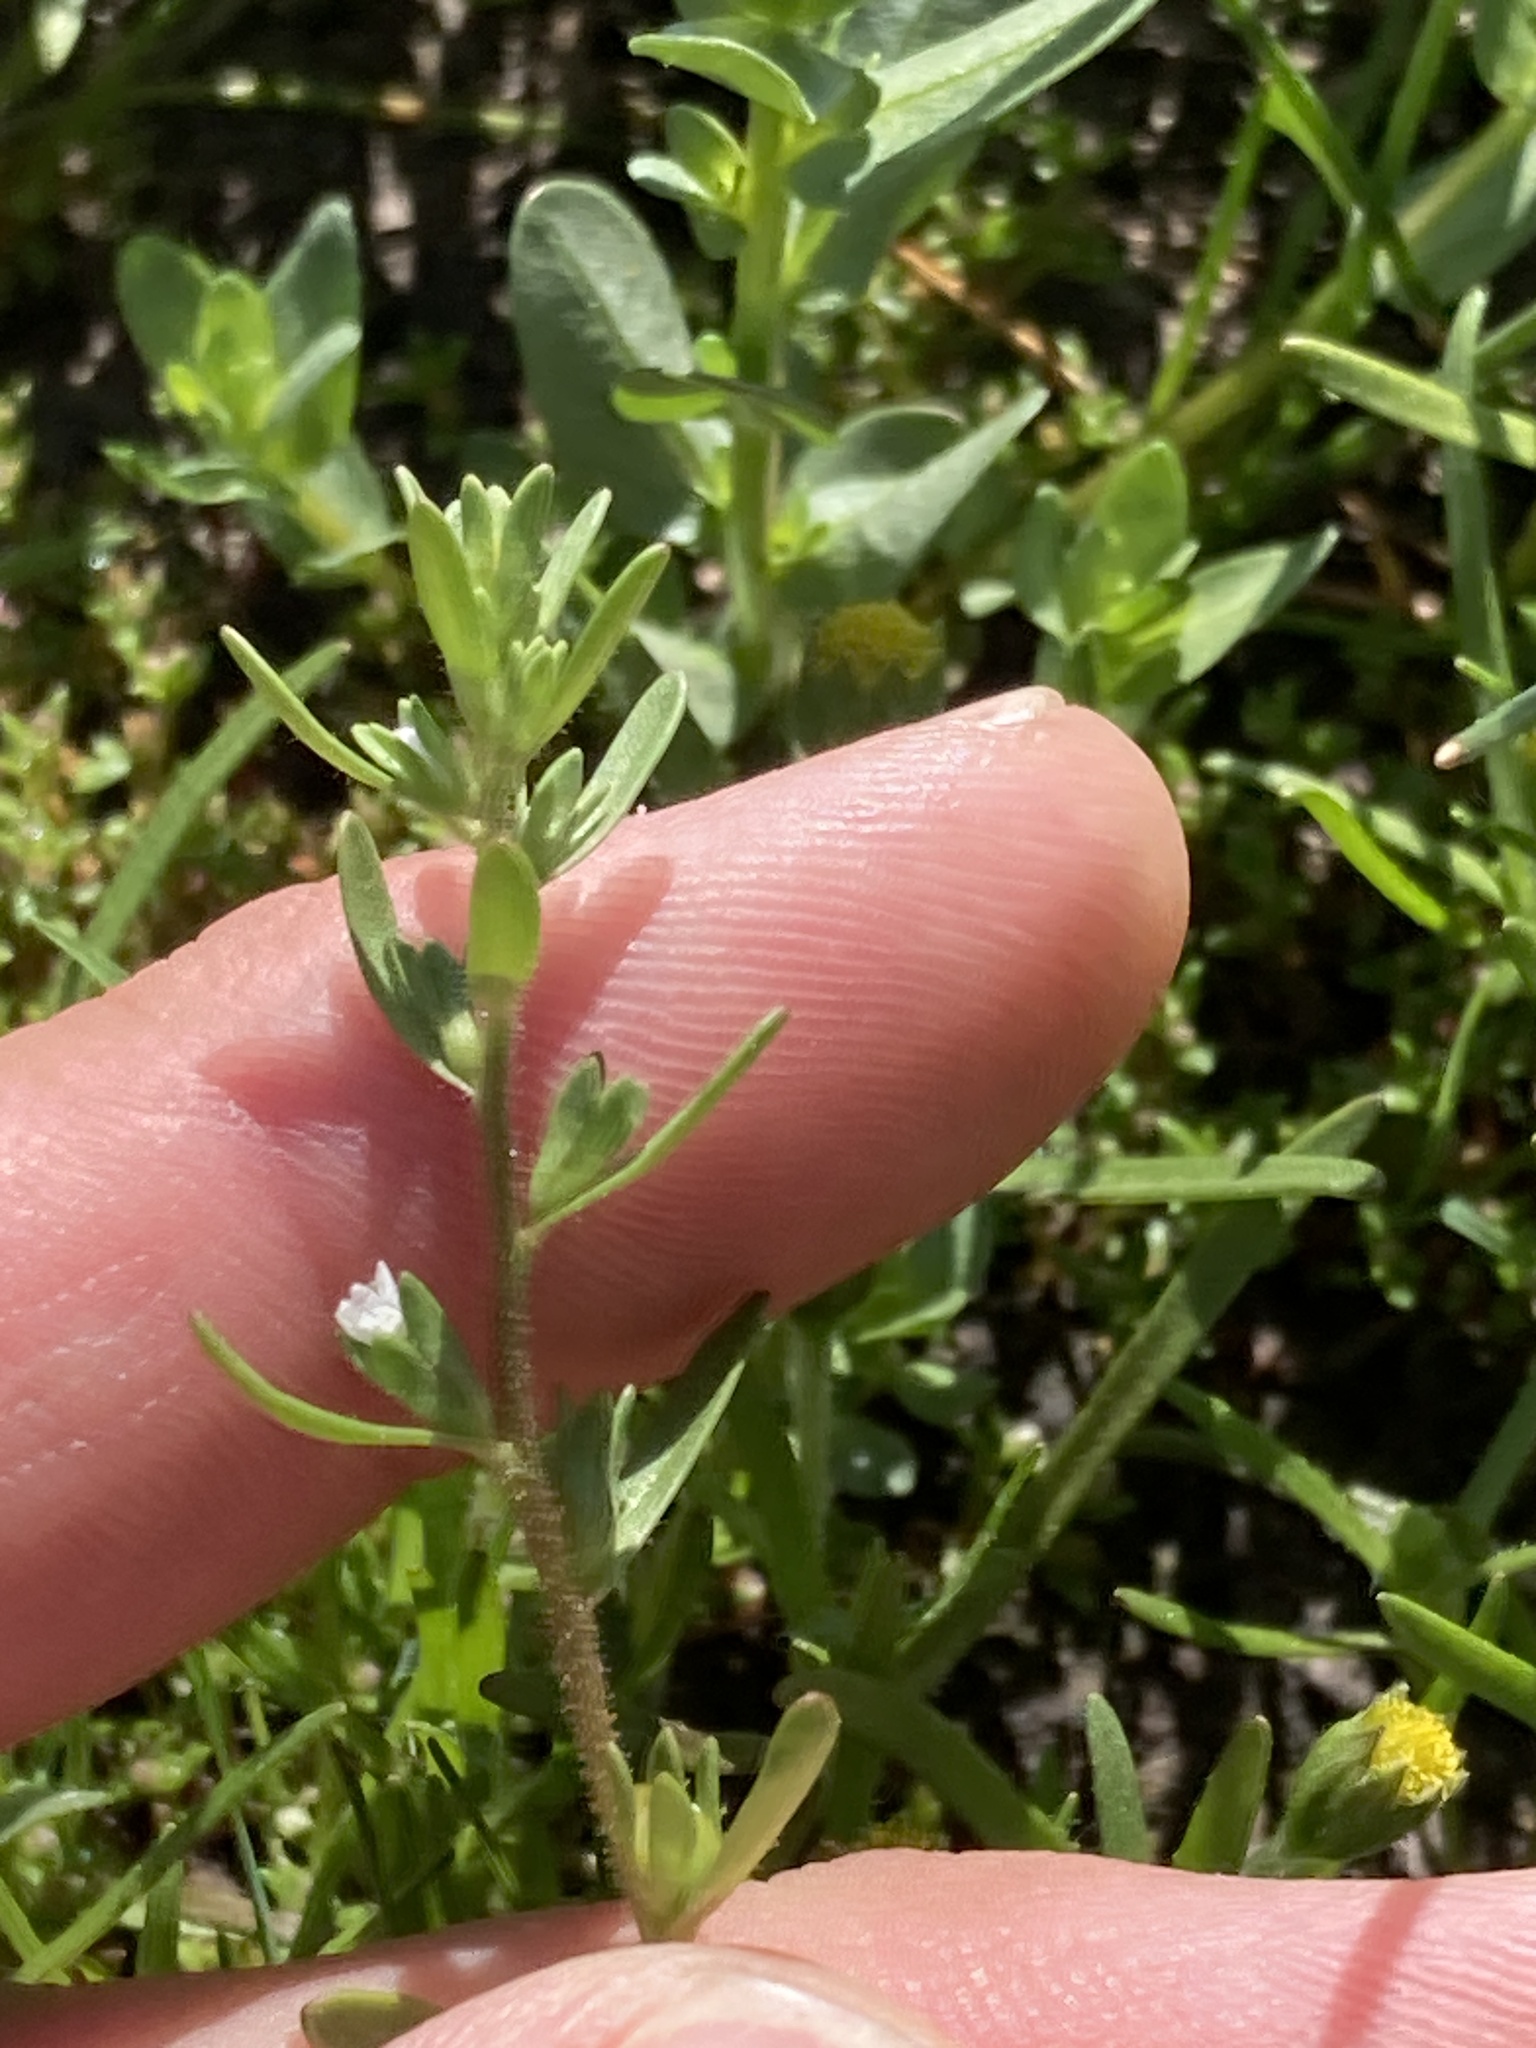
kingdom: Plantae
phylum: Tracheophyta
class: Magnoliopsida
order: Lamiales
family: Plantaginaceae
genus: Veronica
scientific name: Veronica peregrina
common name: Neckweed
